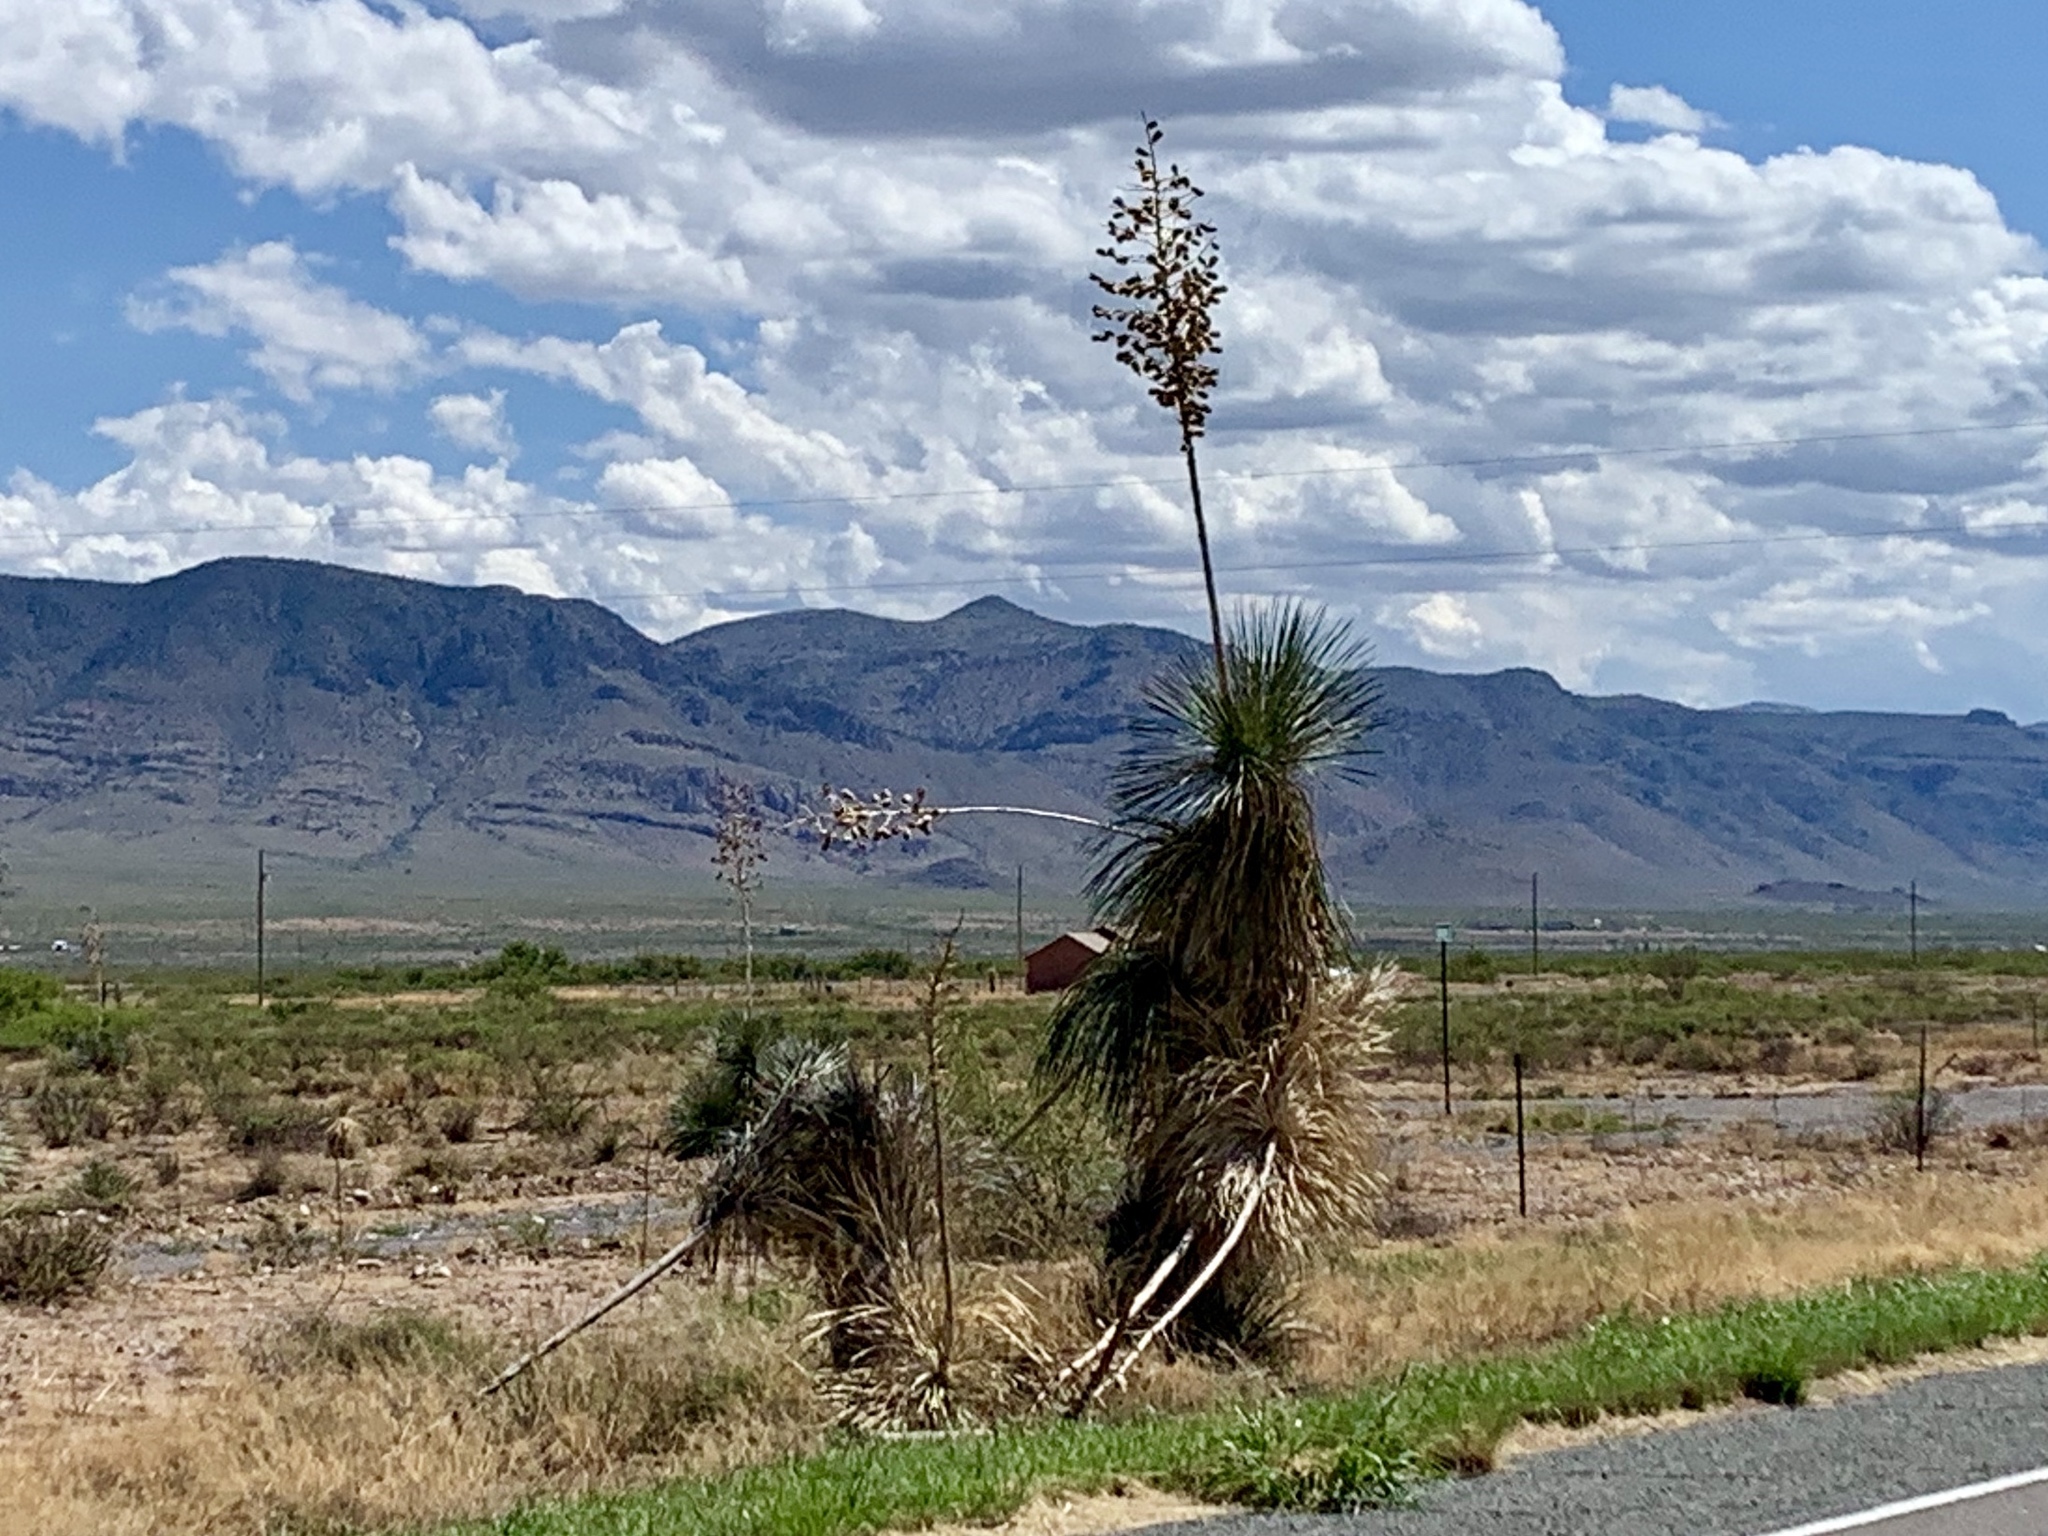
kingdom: Plantae
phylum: Tracheophyta
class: Liliopsida
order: Asparagales
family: Asparagaceae
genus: Yucca
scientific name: Yucca elata
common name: Palmella
